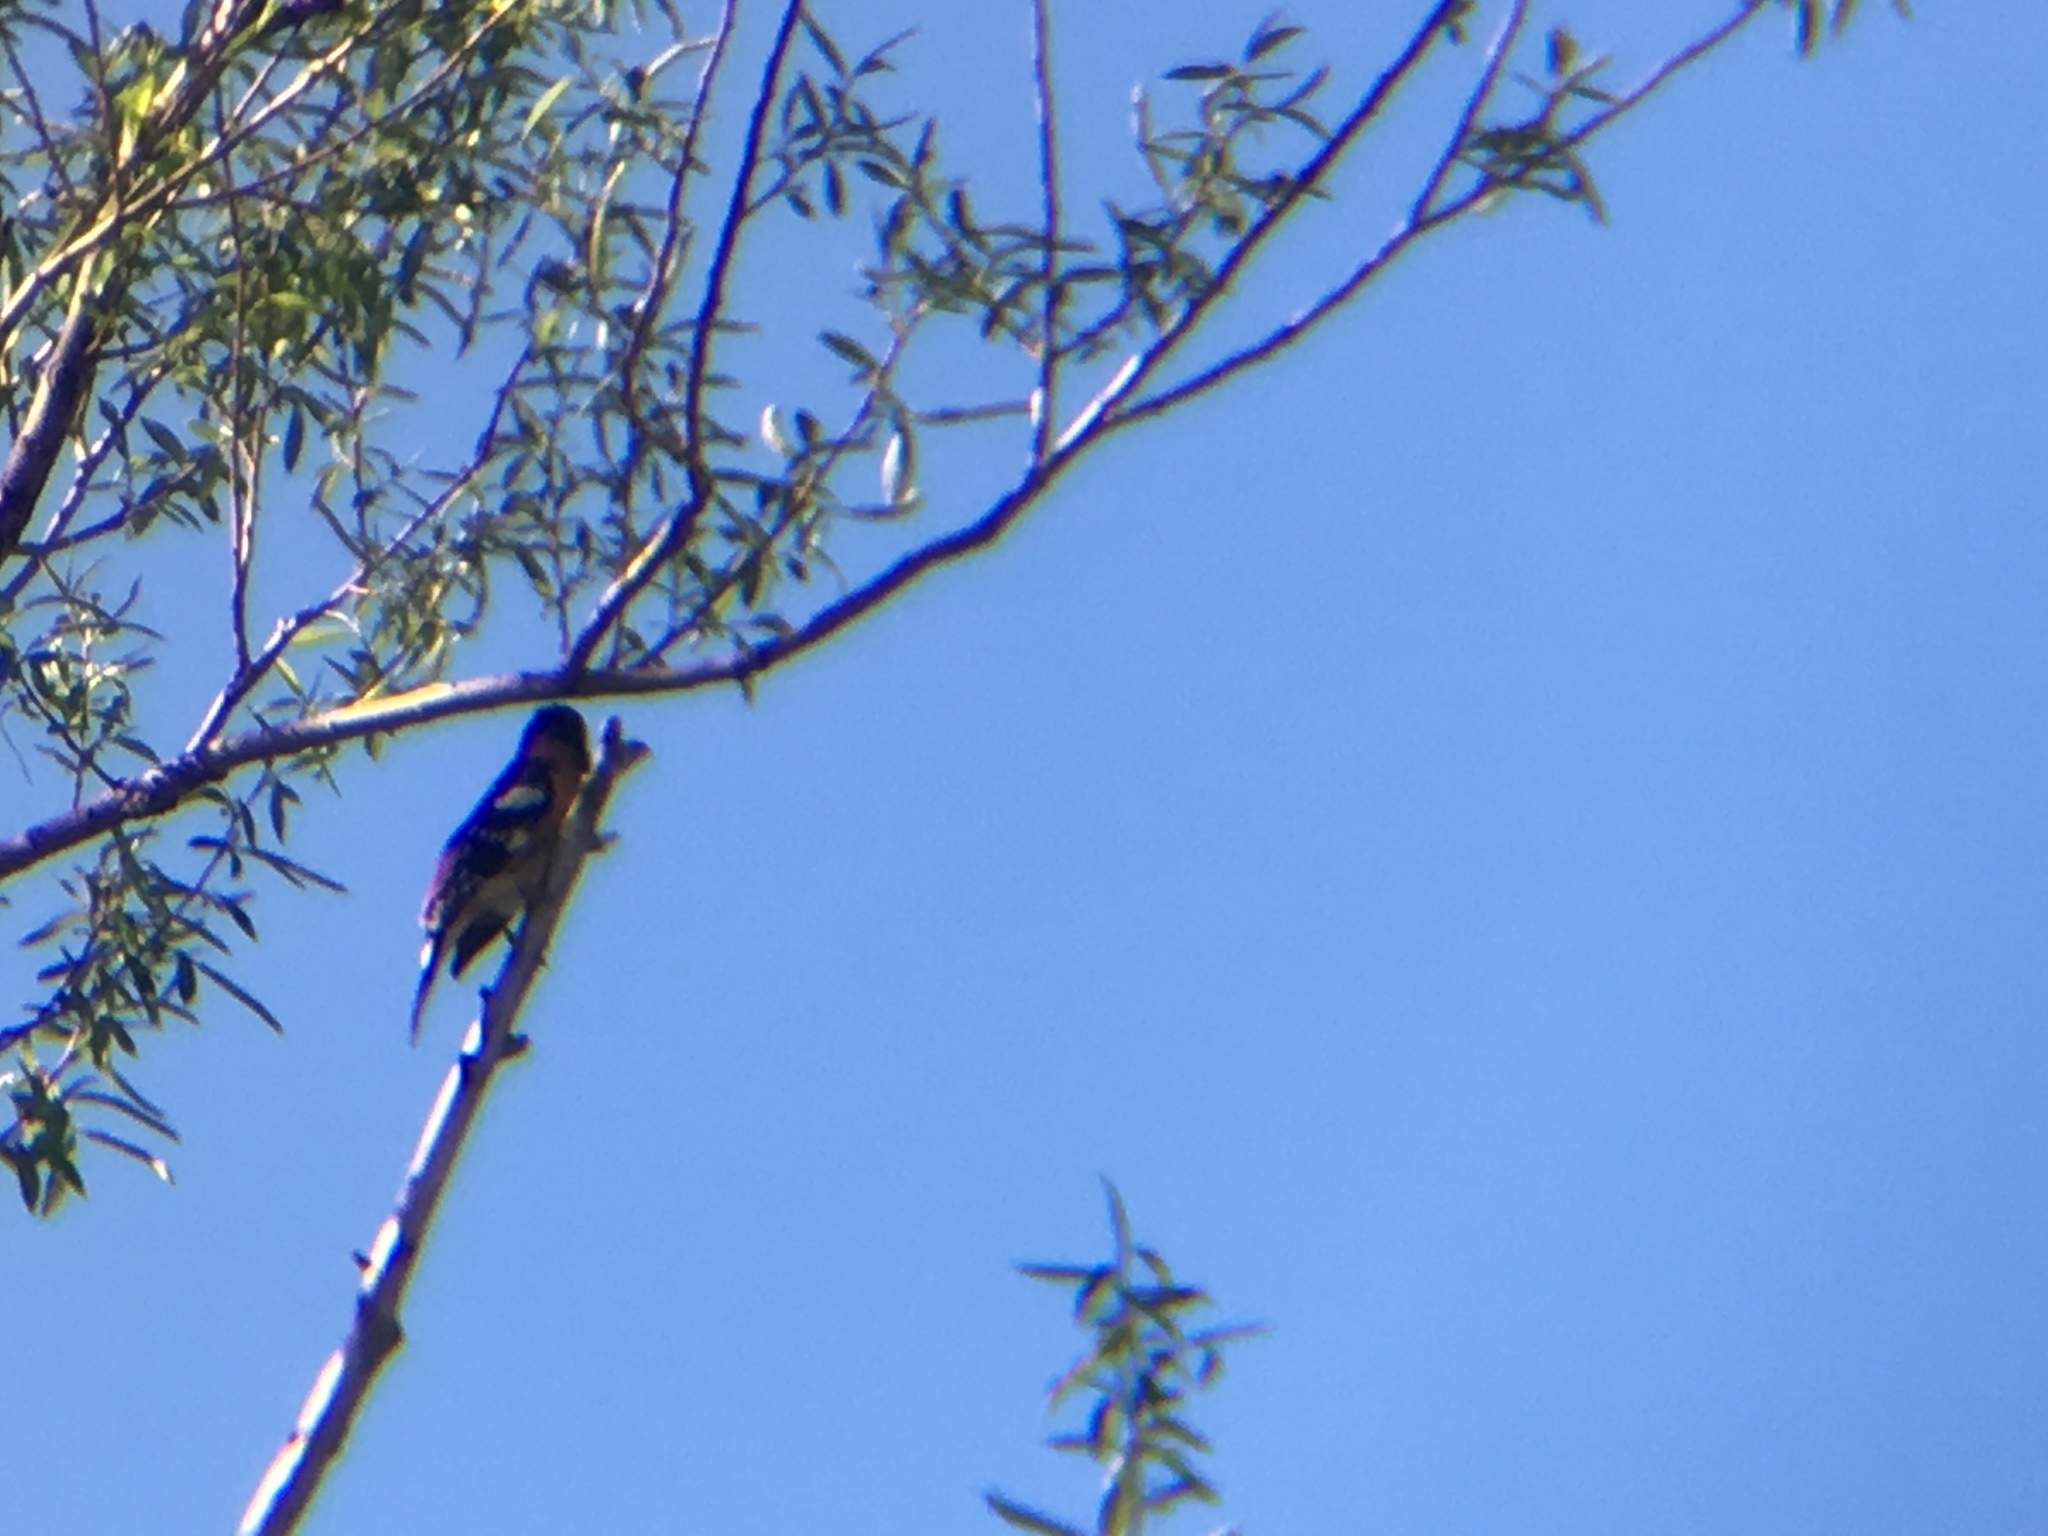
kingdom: Animalia
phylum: Chordata
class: Aves
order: Passeriformes
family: Cardinalidae
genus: Pheucticus
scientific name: Pheucticus melanocephalus
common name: Black-headed grosbeak
